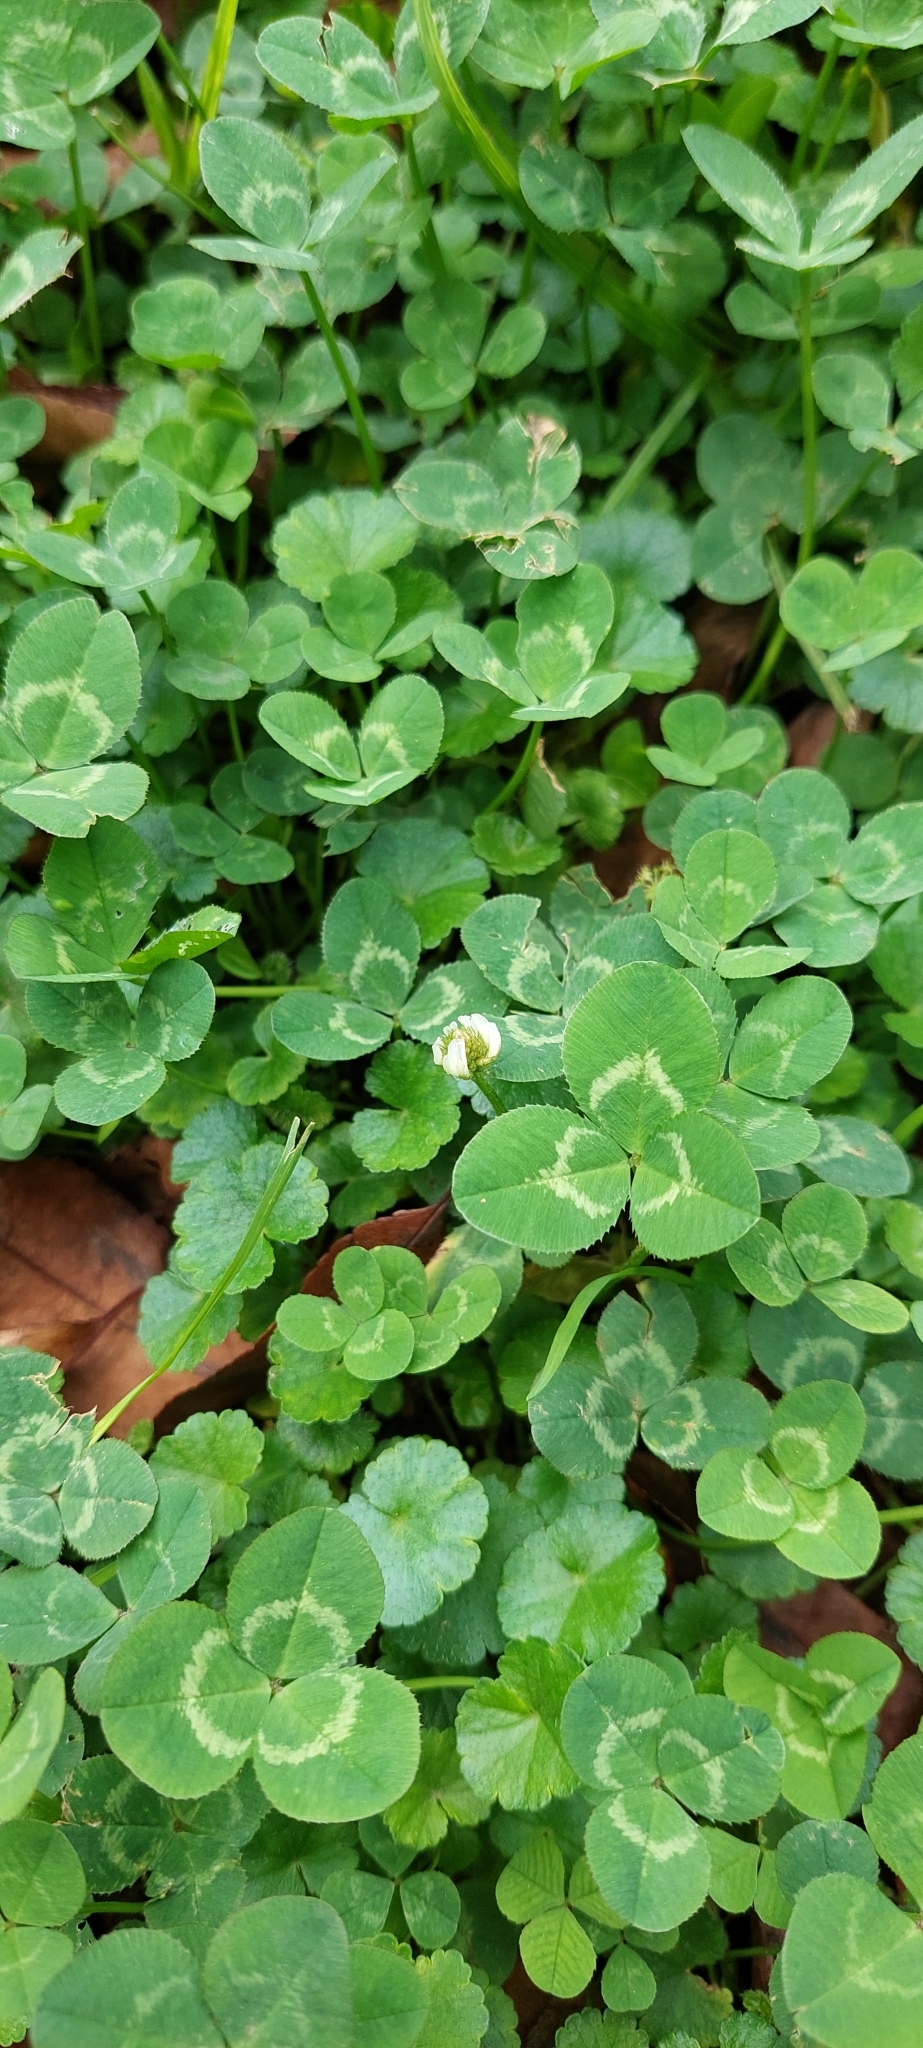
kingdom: Plantae
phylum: Tracheophyta
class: Magnoliopsida
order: Fabales
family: Fabaceae
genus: Trifolium
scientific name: Trifolium repens
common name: White clover
